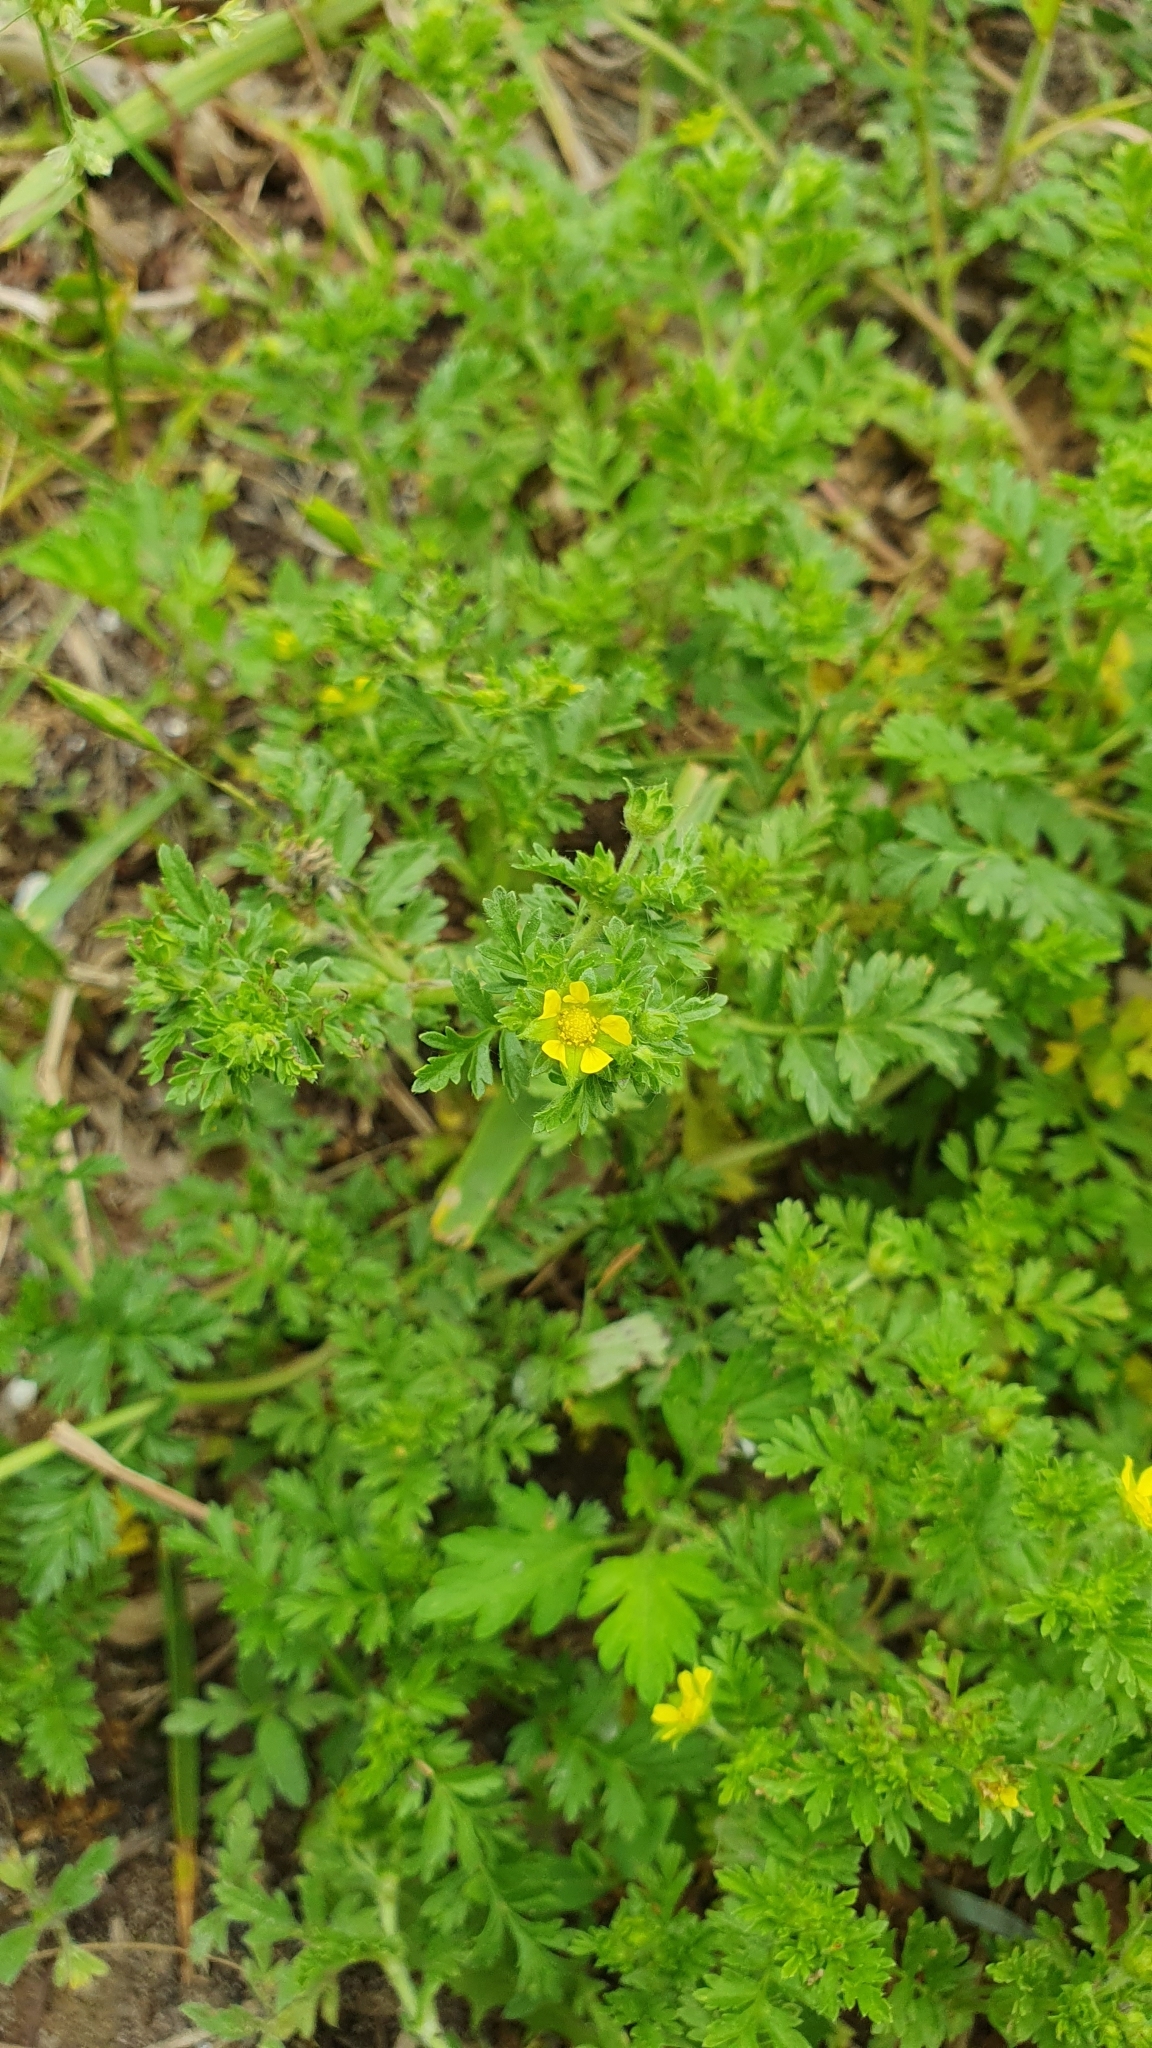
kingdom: Plantae
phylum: Tracheophyta
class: Magnoliopsida
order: Rosales
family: Rosaceae
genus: Potentilla
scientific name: Potentilla supina
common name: Prostrate cinquefoil
